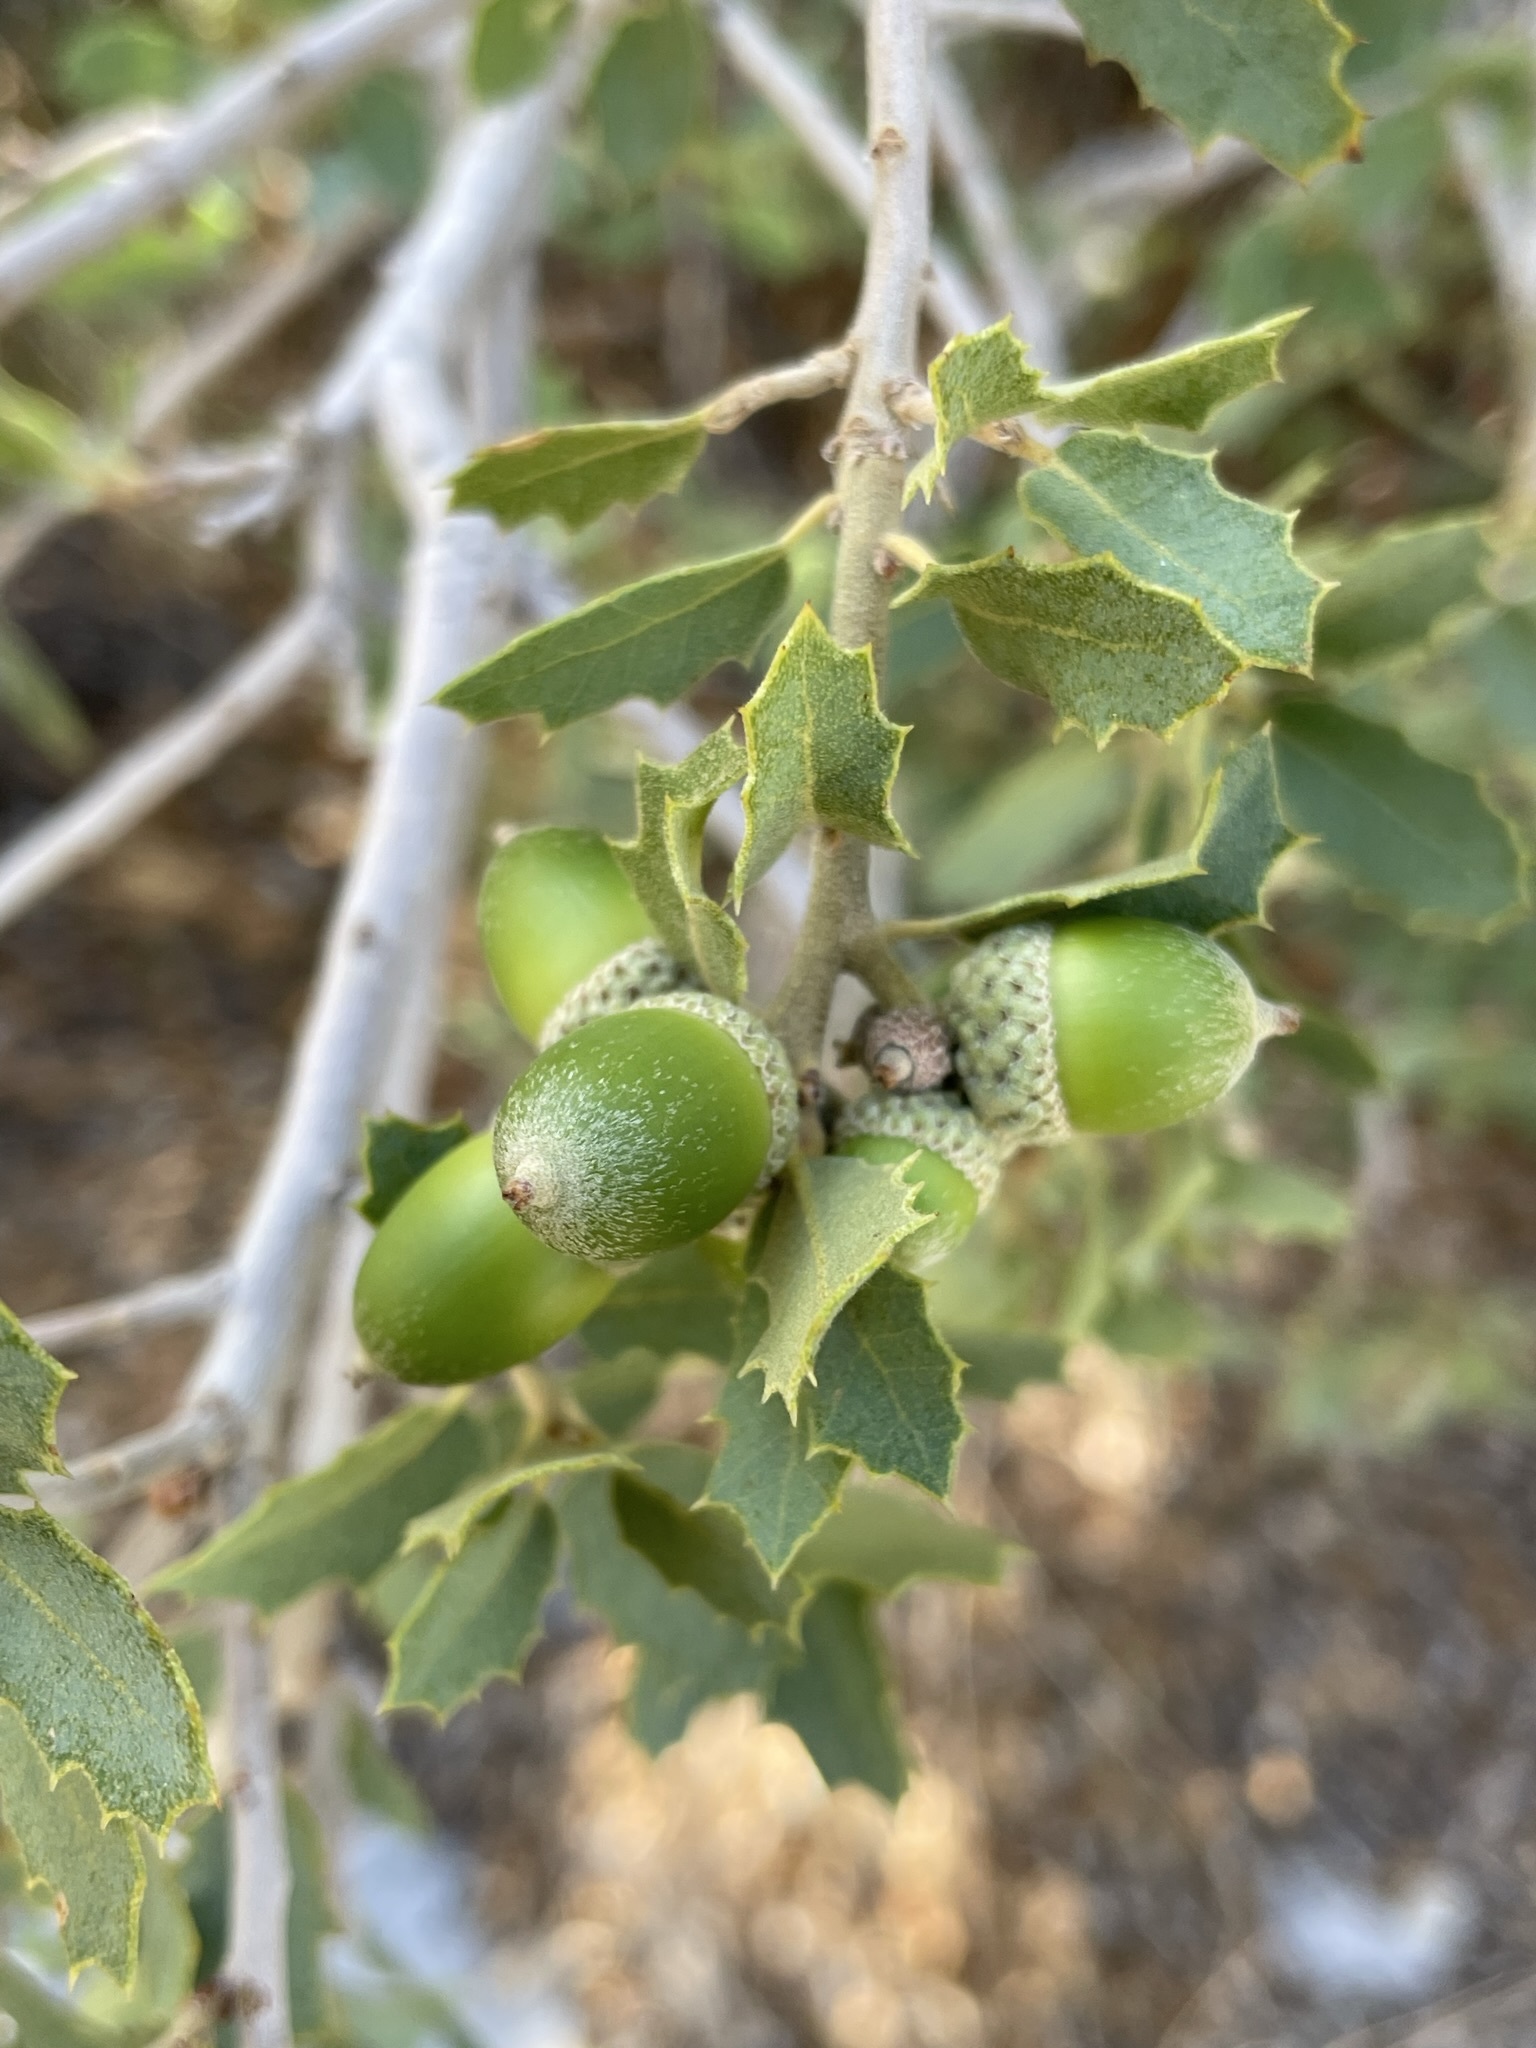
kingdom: Plantae
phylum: Tracheophyta
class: Magnoliopsida
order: Fagales
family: Fagaceae
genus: Quercus
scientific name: Quercus turbinella
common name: Sonoran scrub oak
